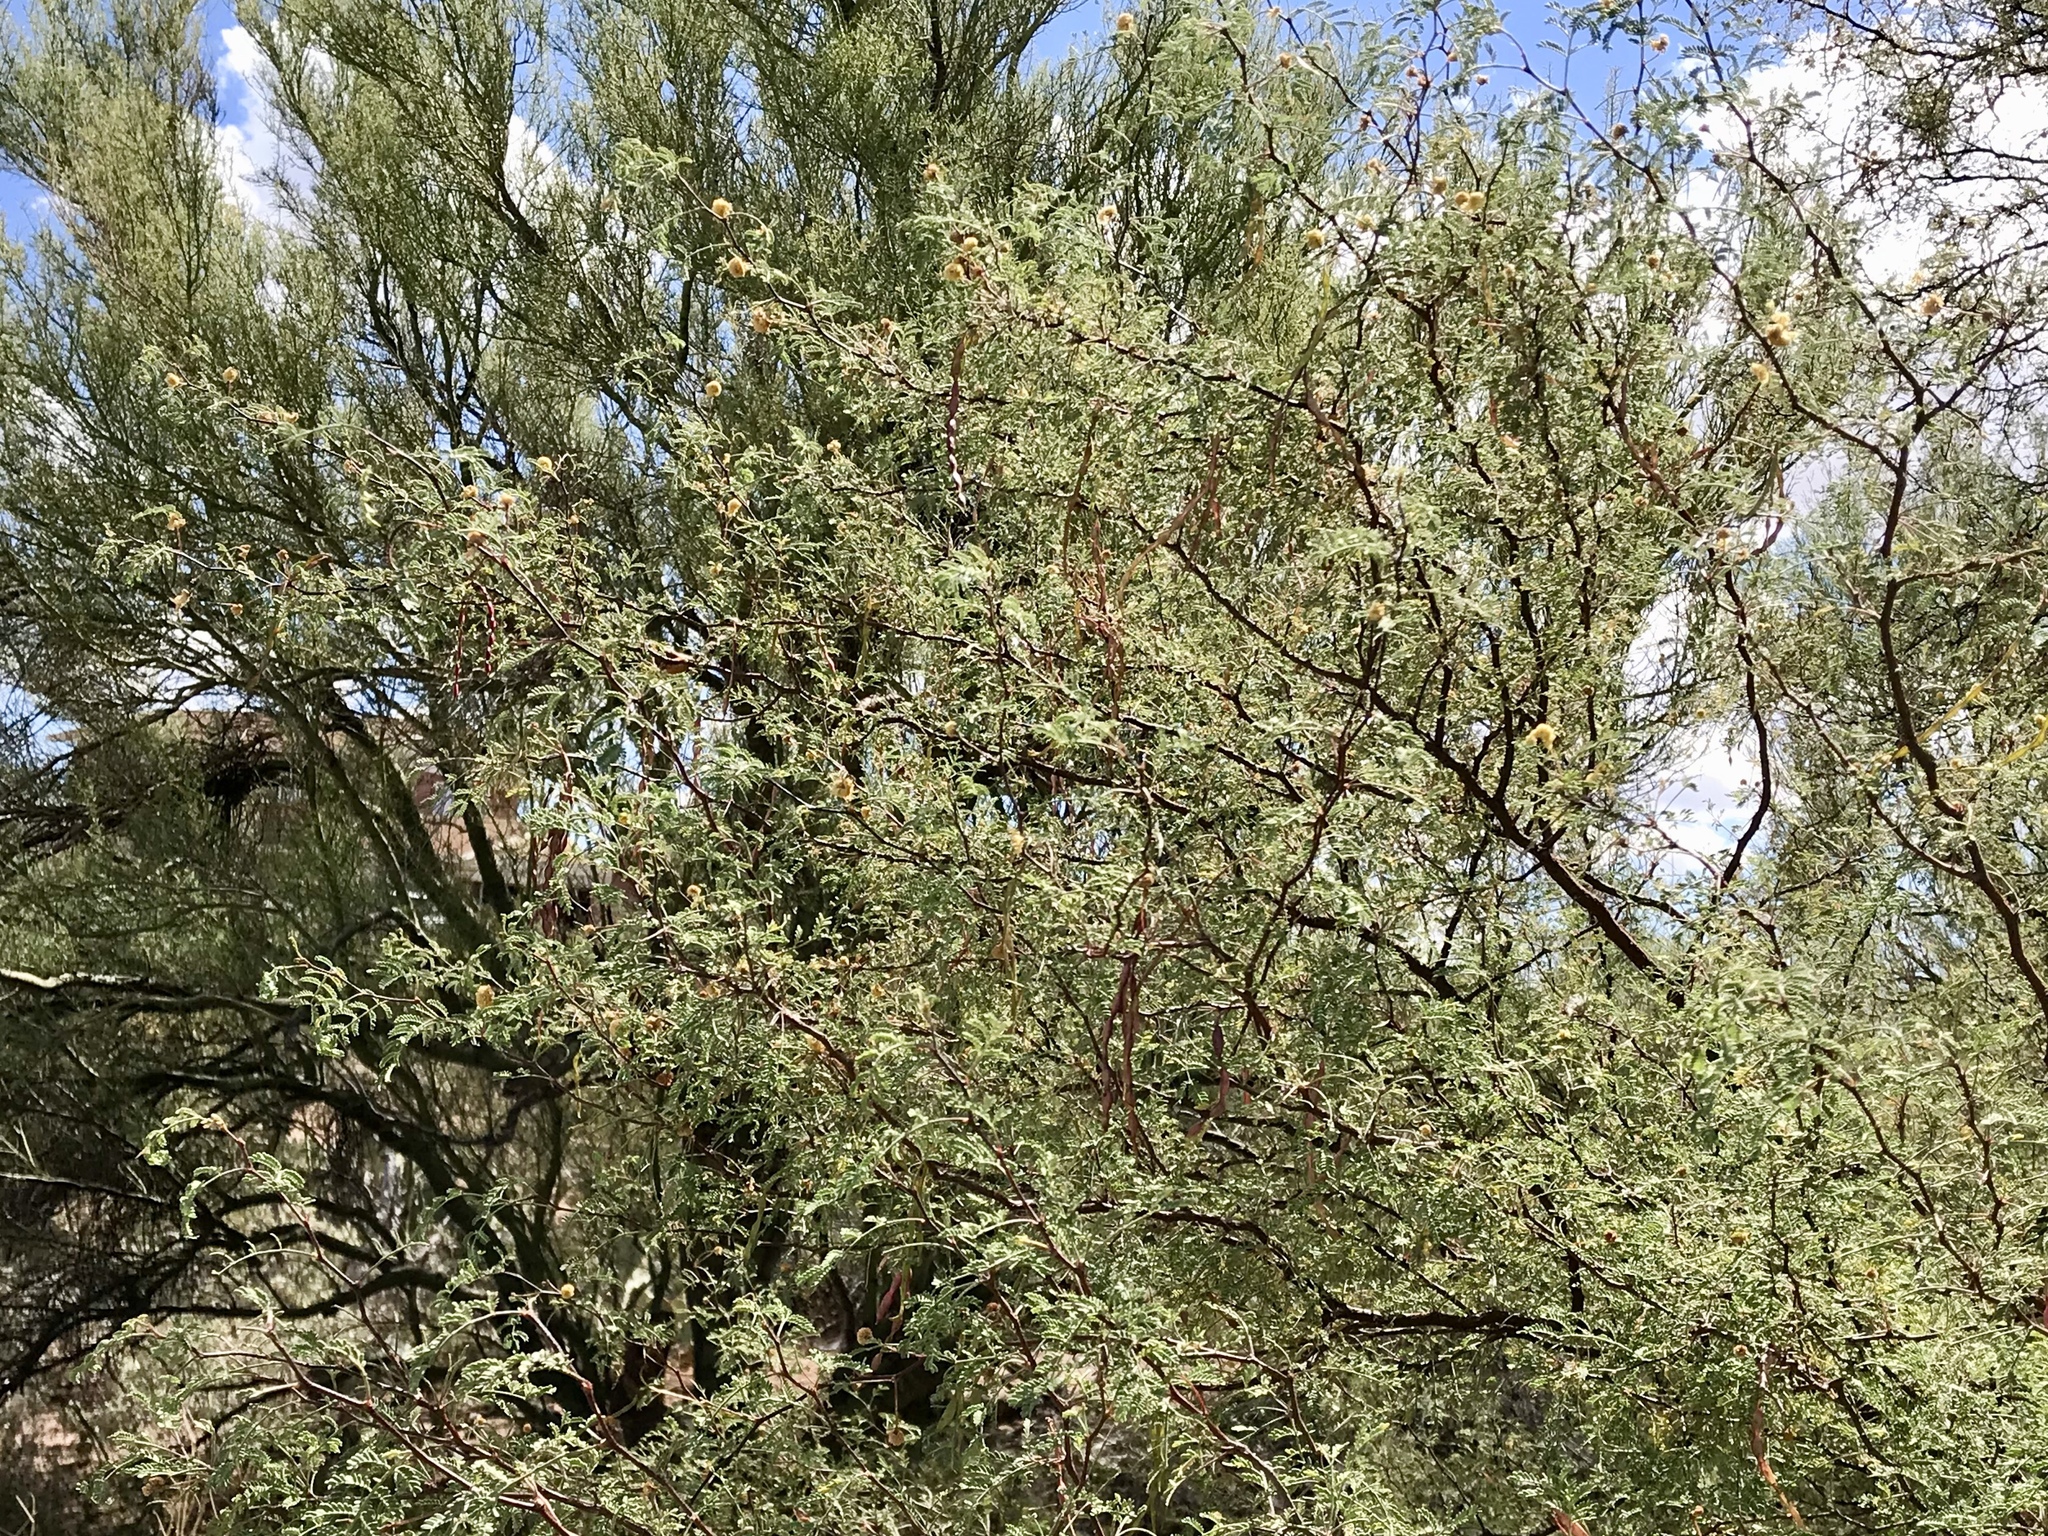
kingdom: Plantae
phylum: Tracheophyta
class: Magnoliopsida
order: Fabales
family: Fabaceae
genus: Senegalia
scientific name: Senegalia greggii
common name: Texas-mimosa
